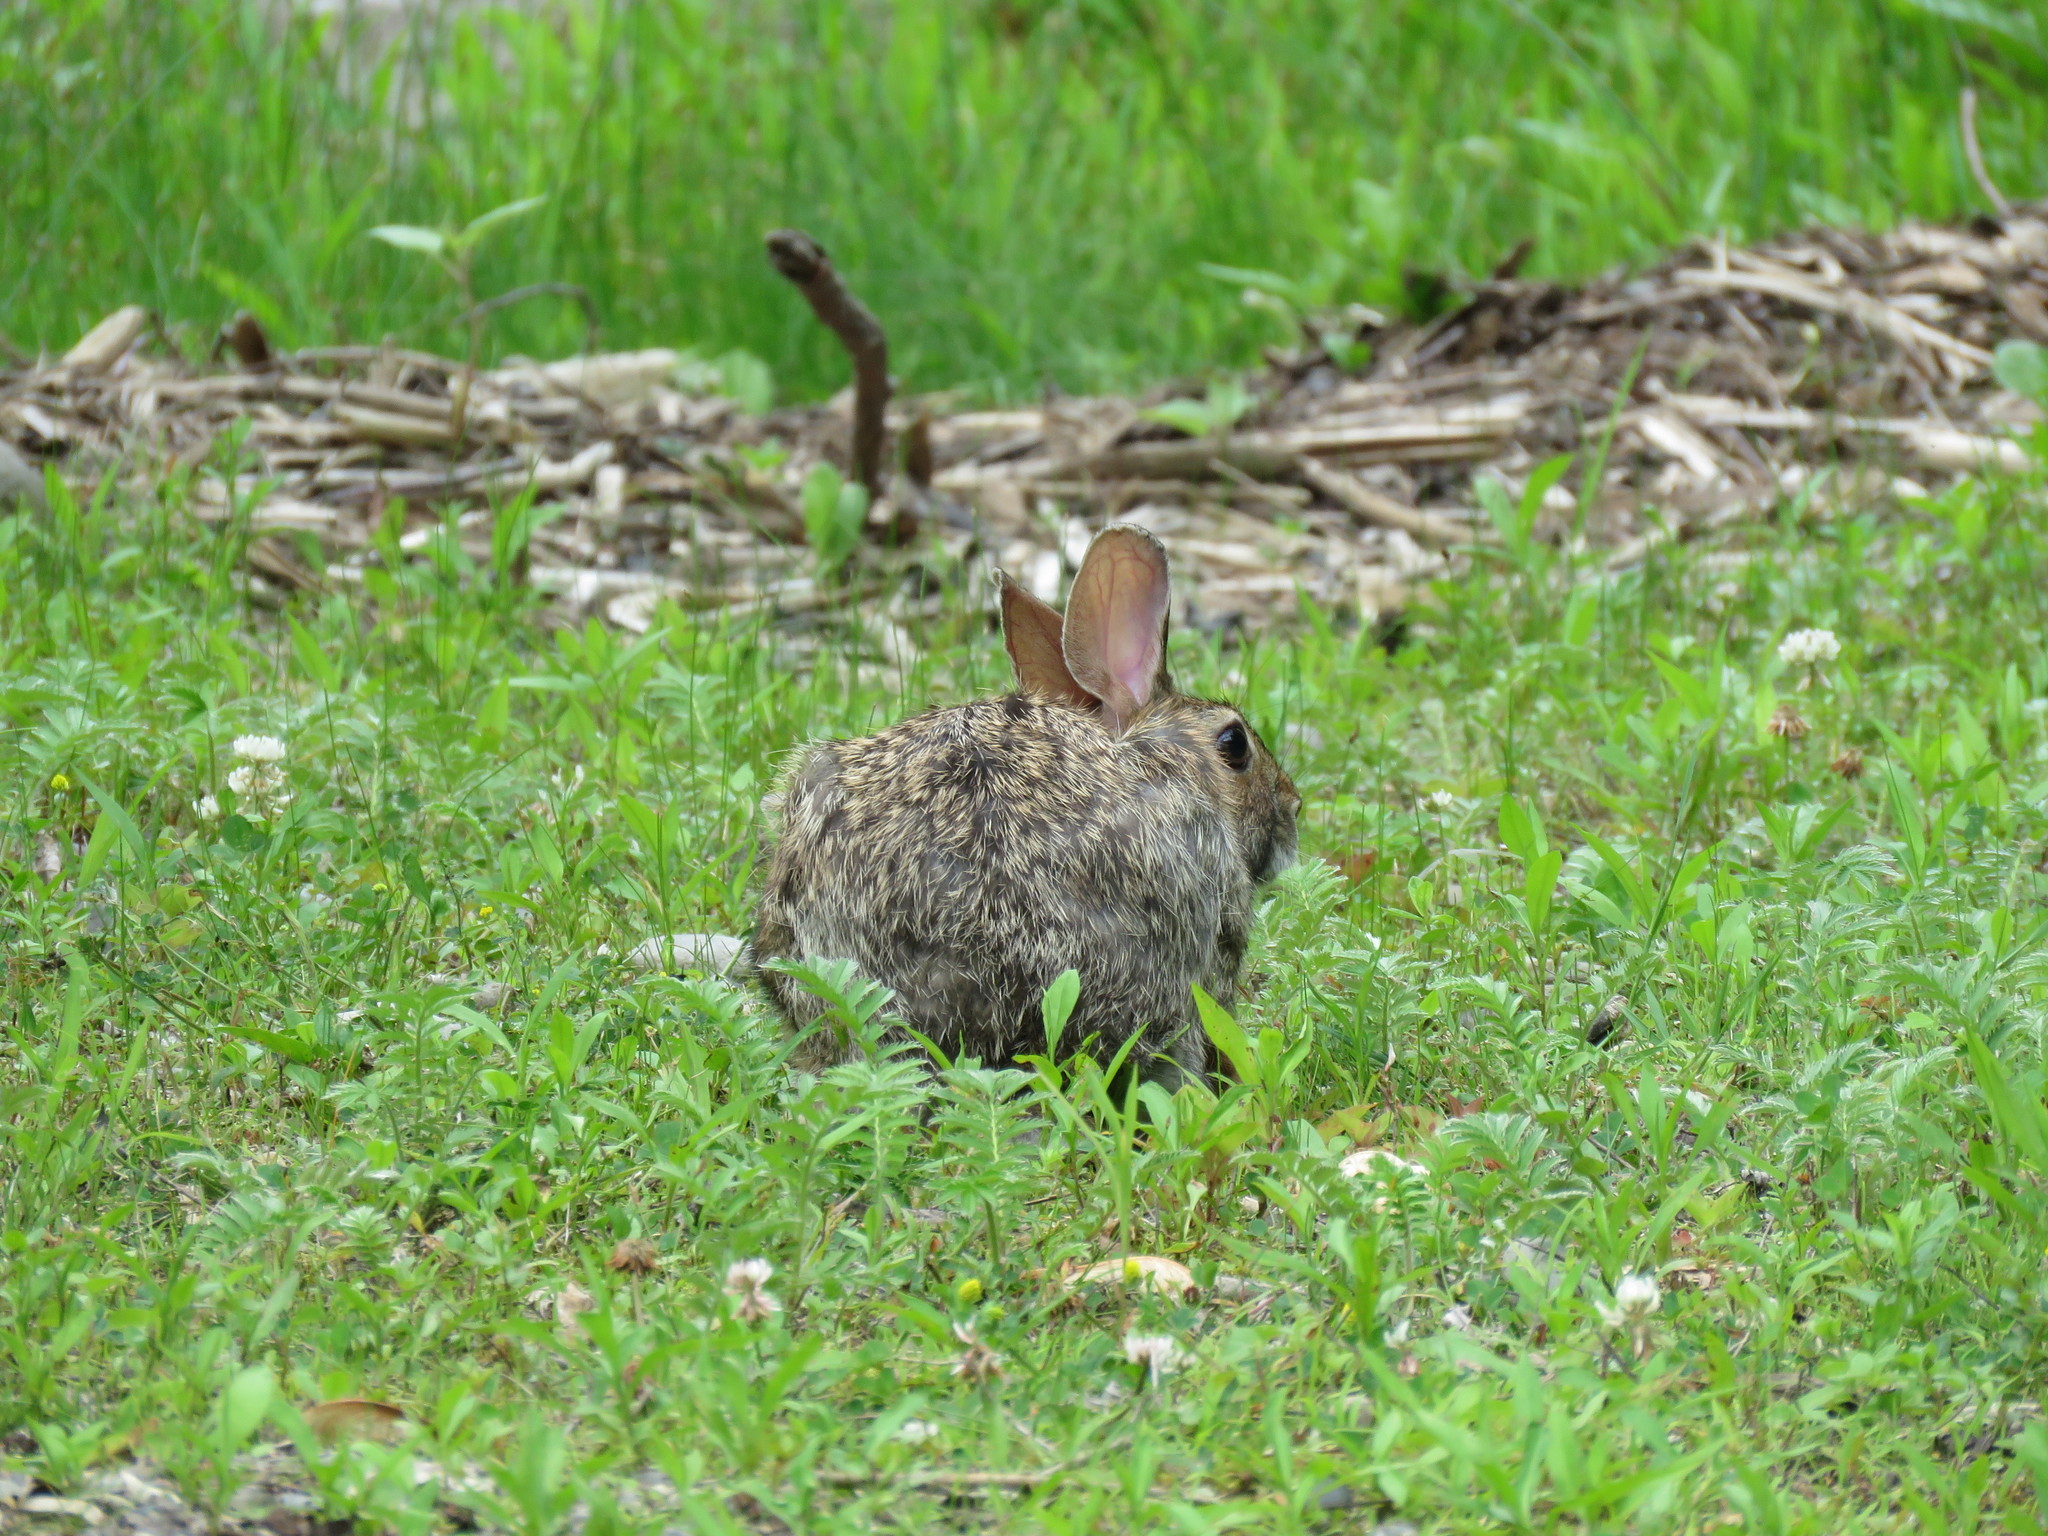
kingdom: Animalia
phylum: Chordata
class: Mammalia
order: Lagomorpha
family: Leporidae
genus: Sylvilagus
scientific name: Sylvilagus floridanus
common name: Eastern cottontail
